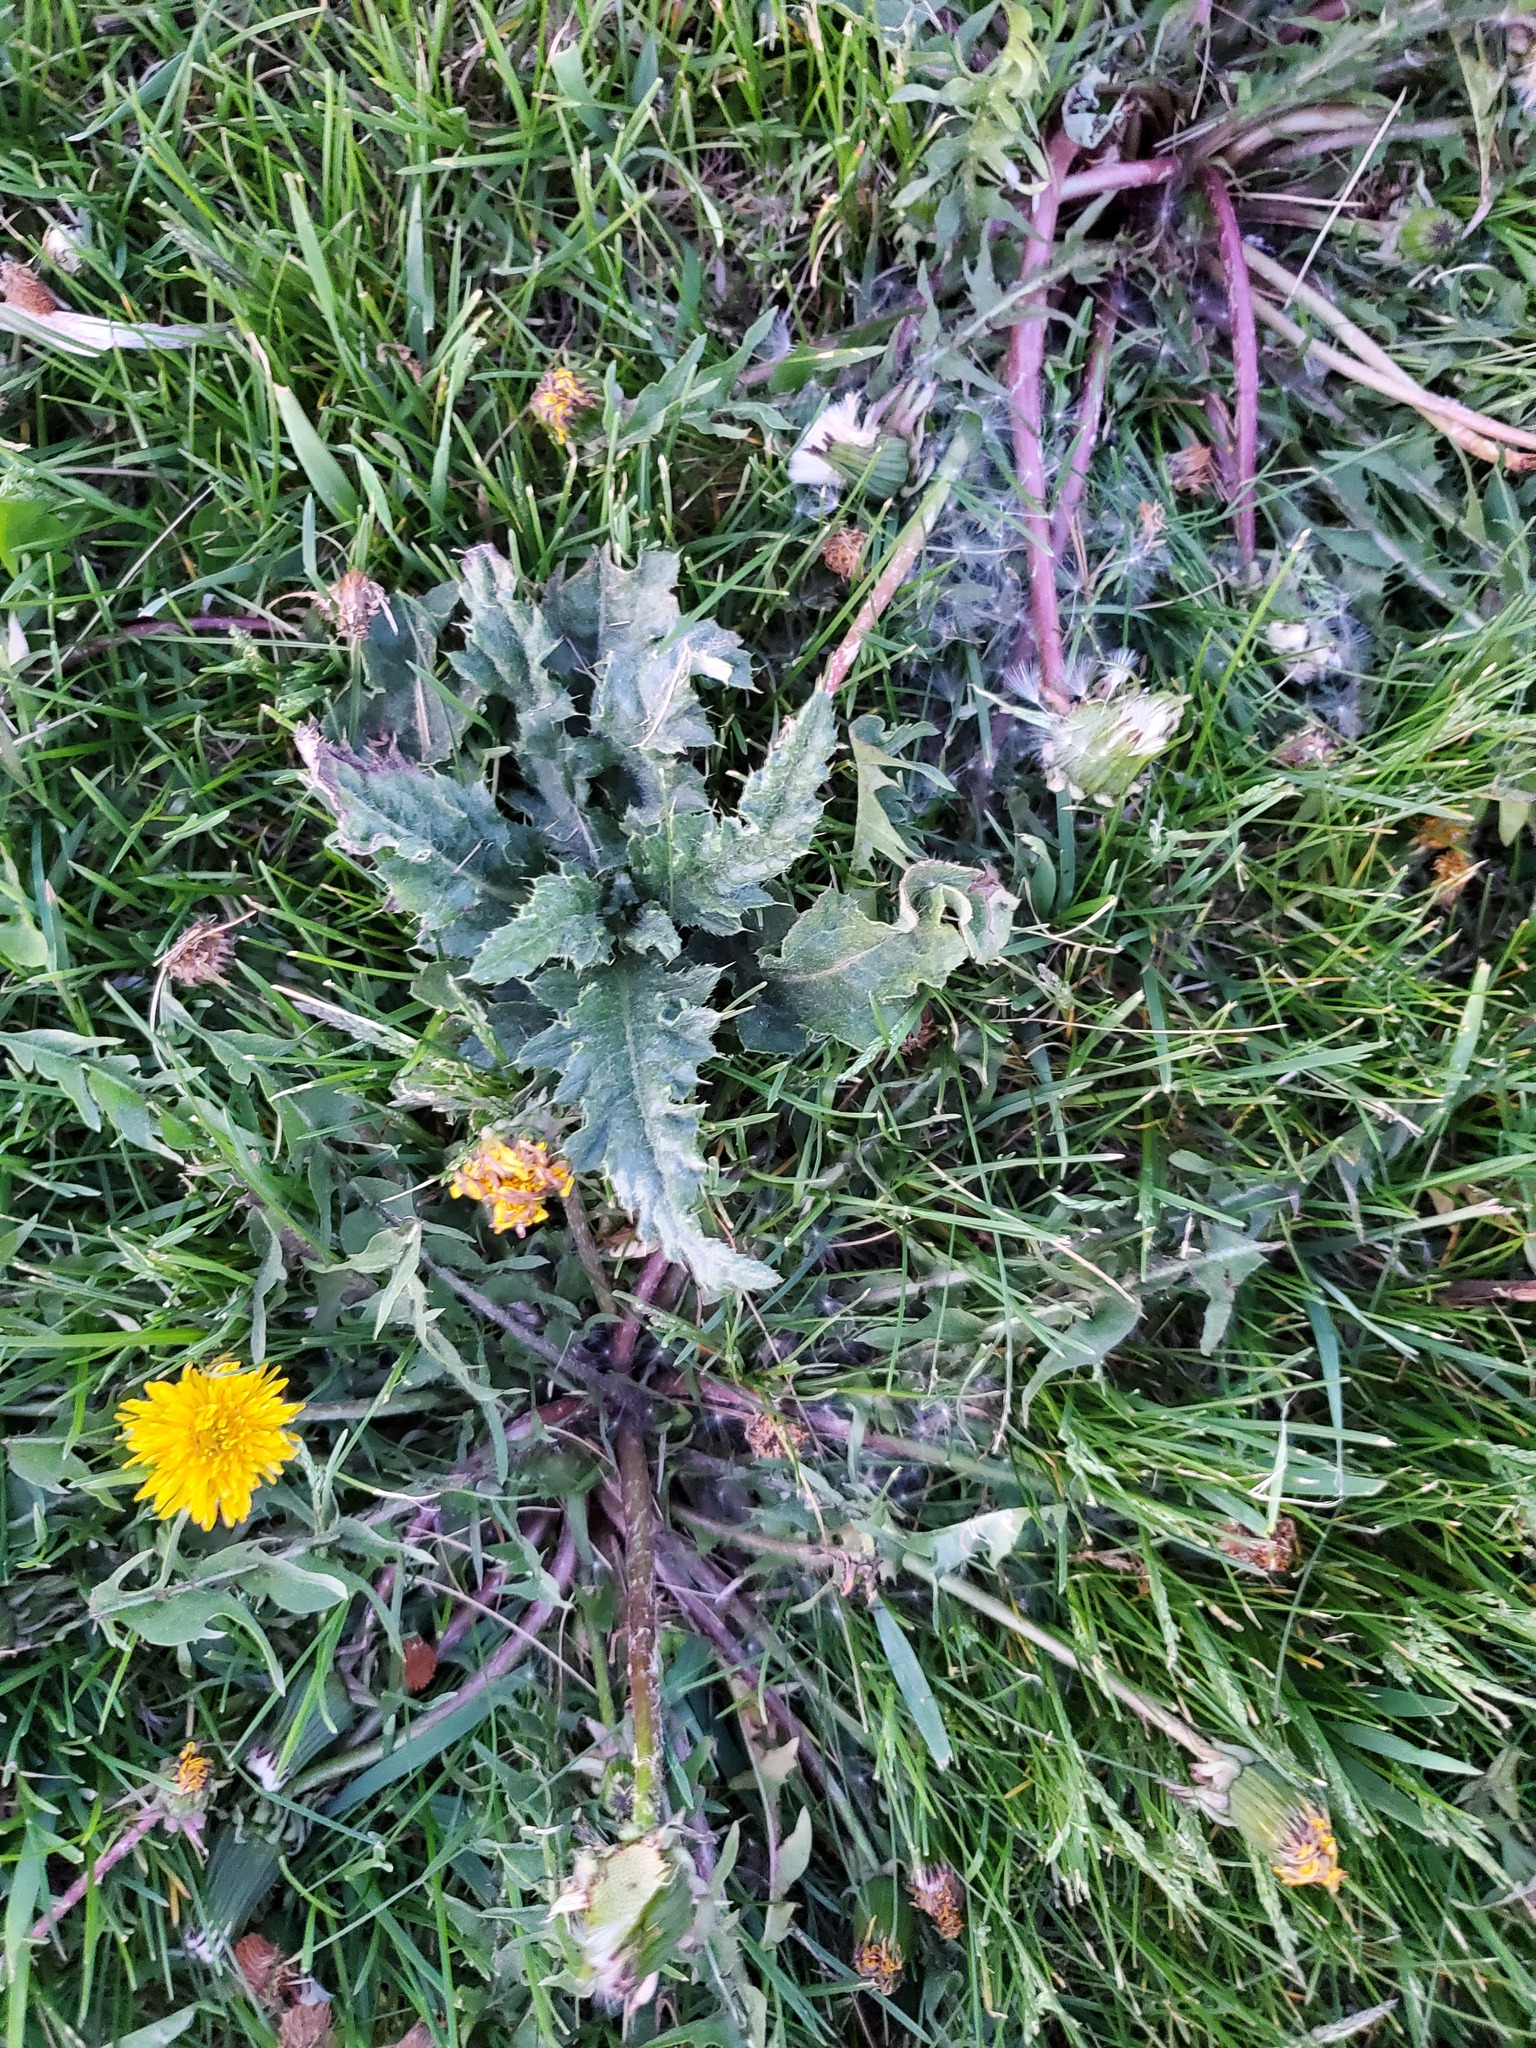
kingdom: Plantae
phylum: Tracheophyta
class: Magnoliopsida
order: Asterales
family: Asteraceae
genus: Taraxacum
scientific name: Taraxacum officinale
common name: Common dandelion
